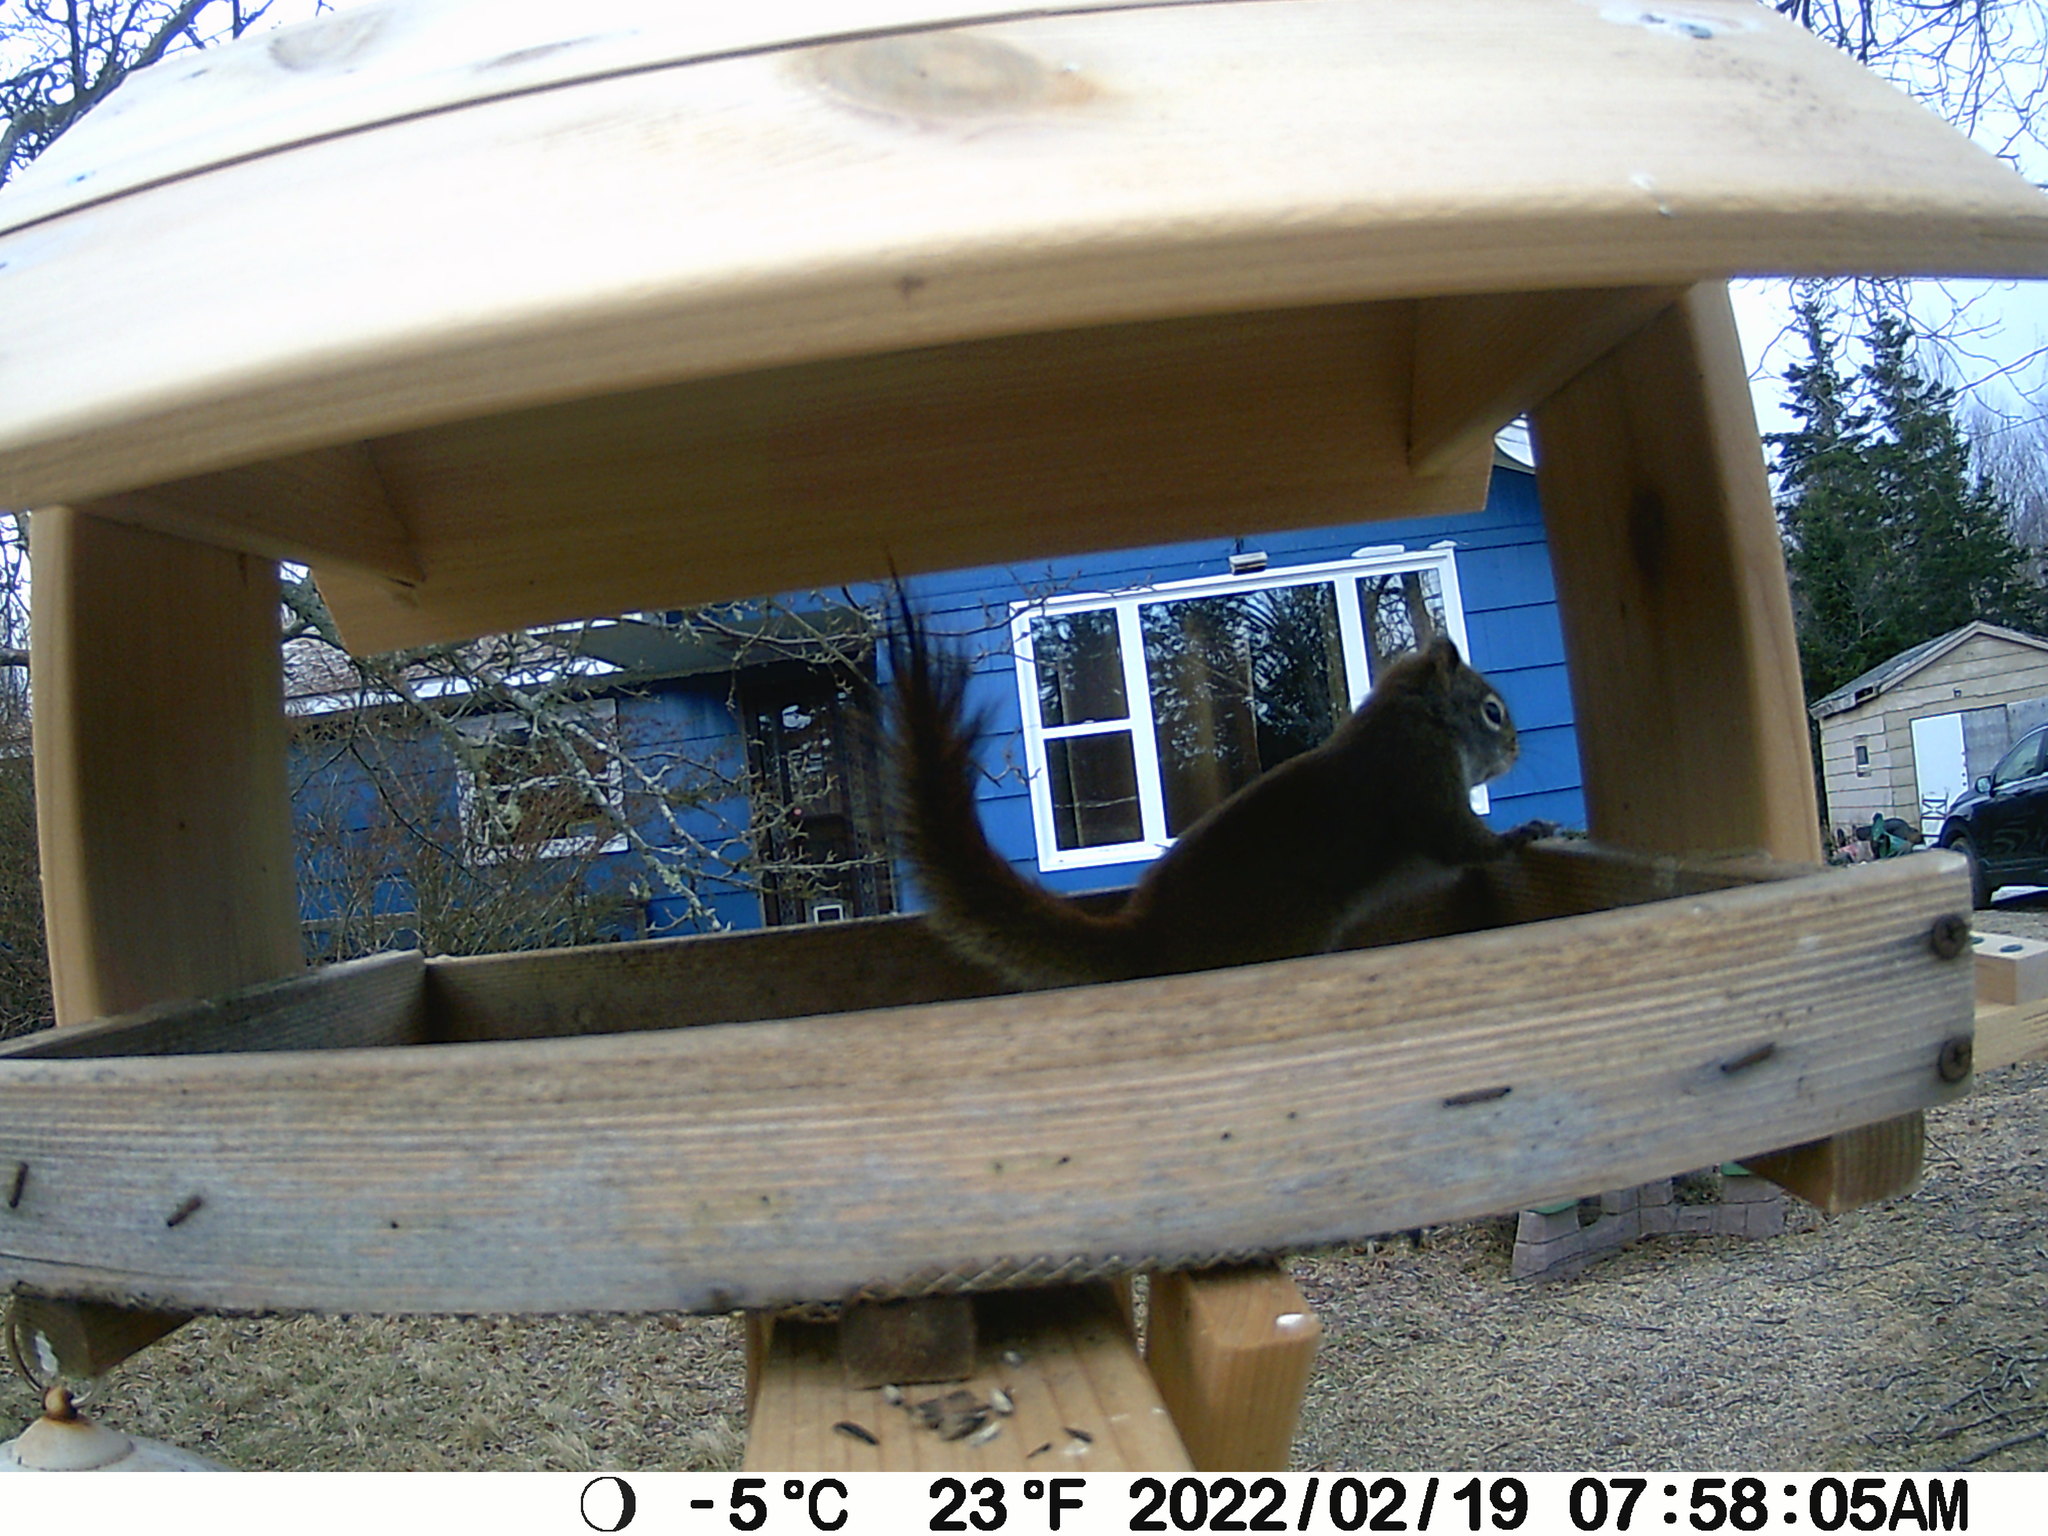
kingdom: Animalia
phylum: Chordata
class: Mammalia
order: Rodentia
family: Sciuridae
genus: Tamiasciurus
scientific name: Tamiasciurus hudsonicus
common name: Red squirrel
